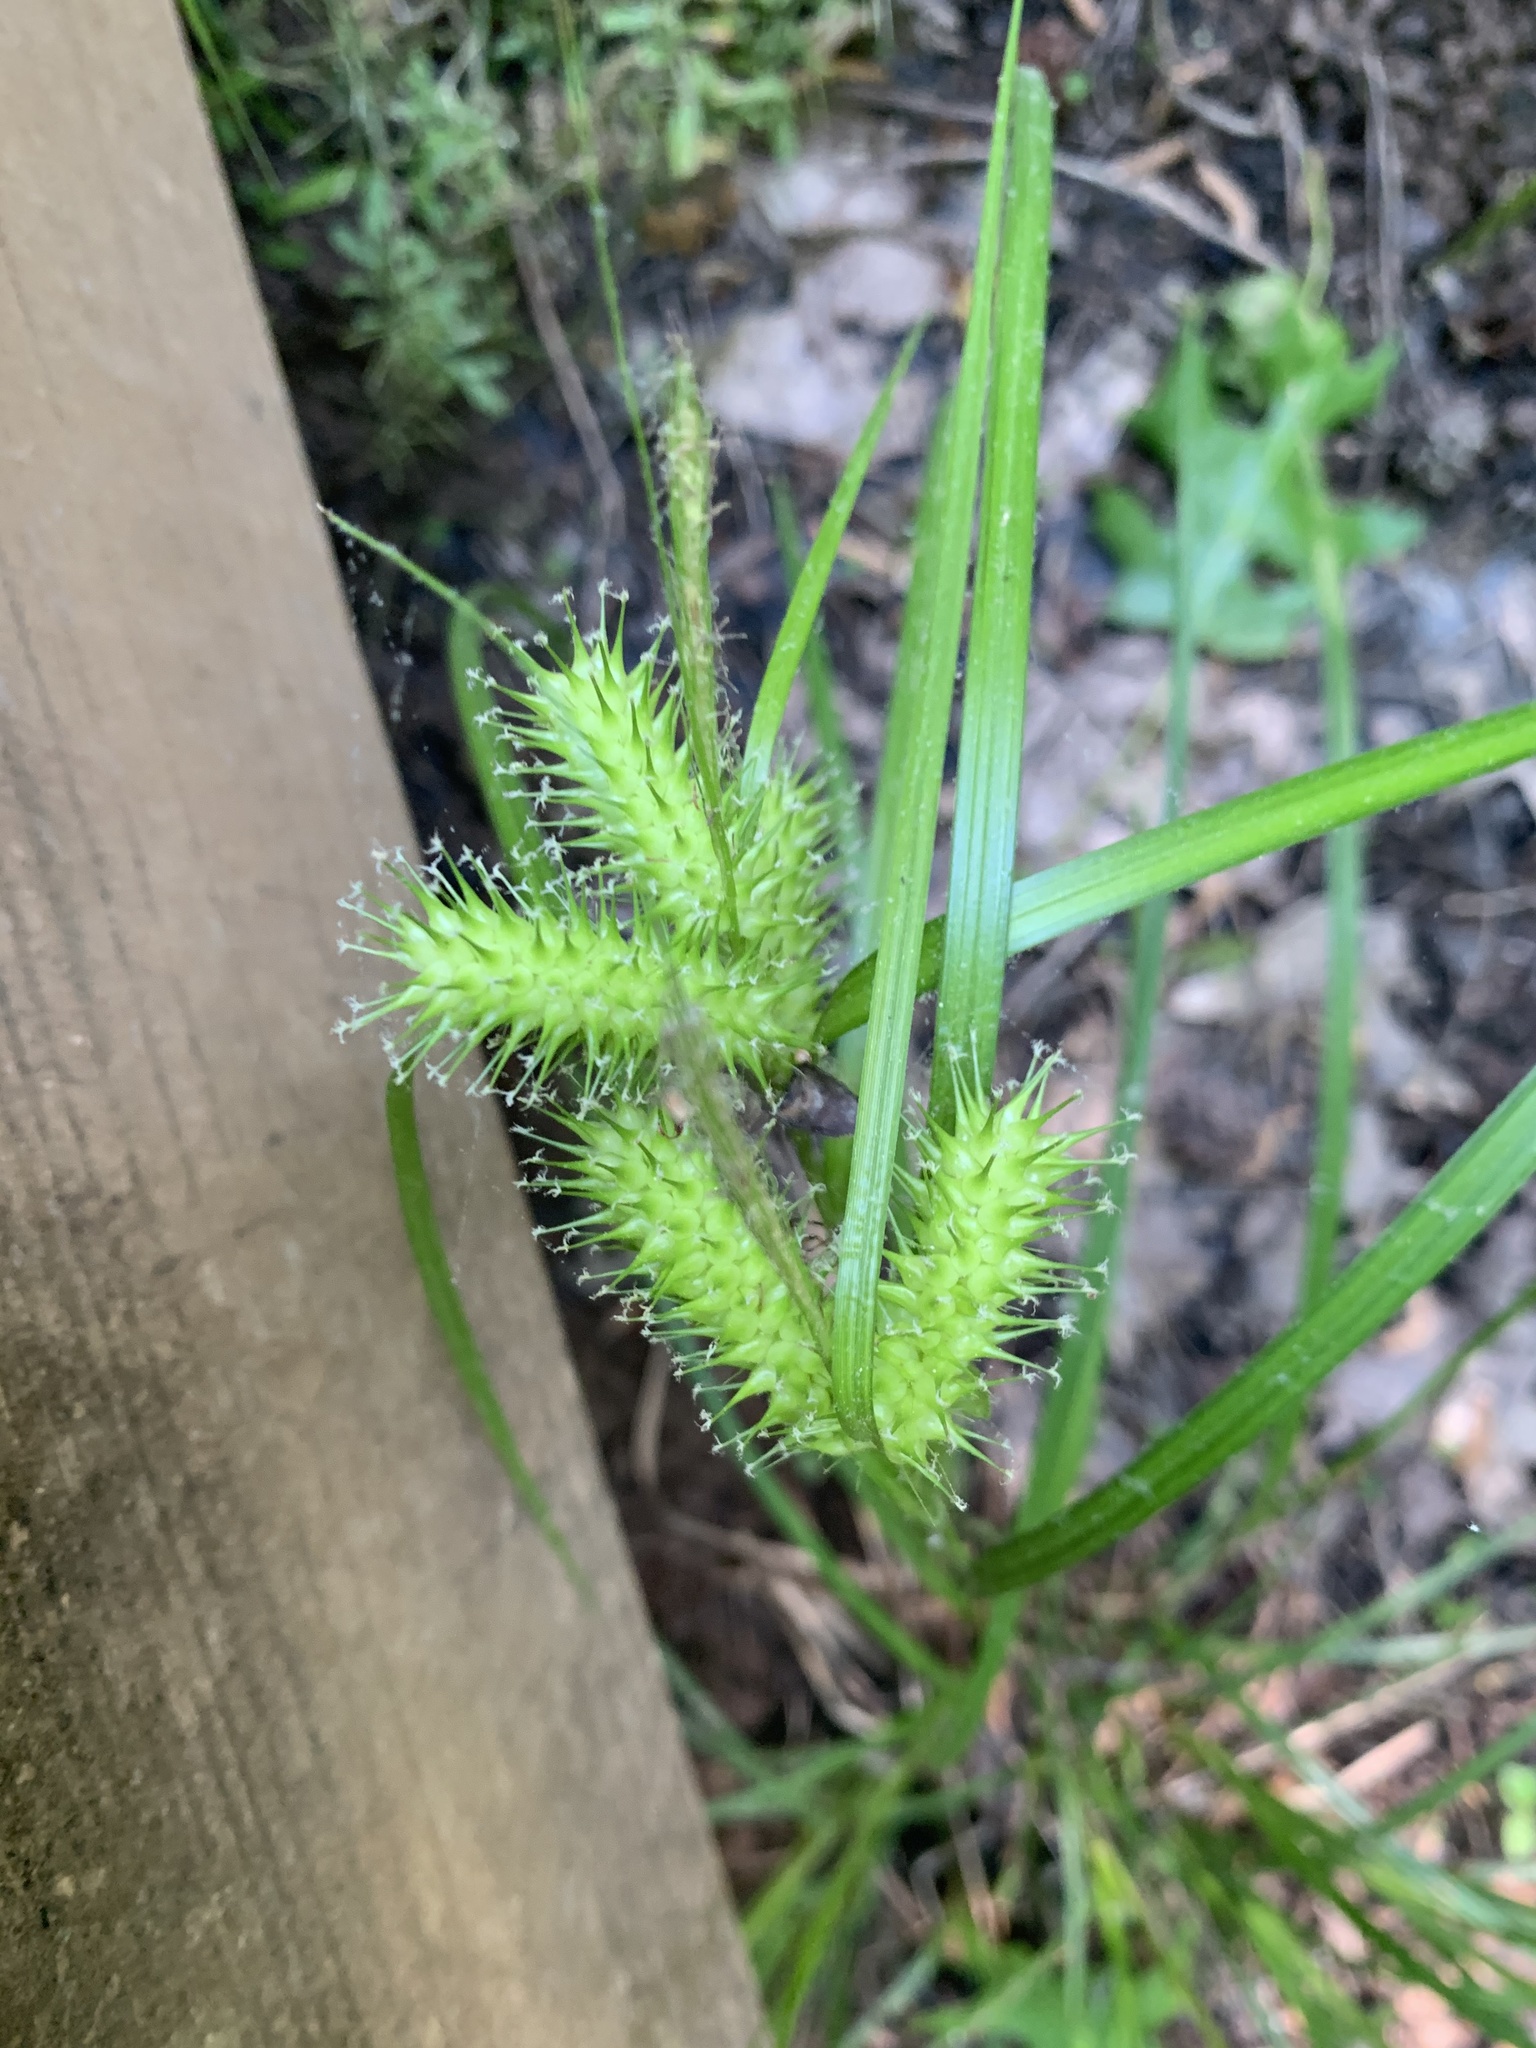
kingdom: Plantae
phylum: Tracheophyta
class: Liliopsida
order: Poales
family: Cyperaceae
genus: Carex
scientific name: Carex lurida
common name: Sallow sedge
